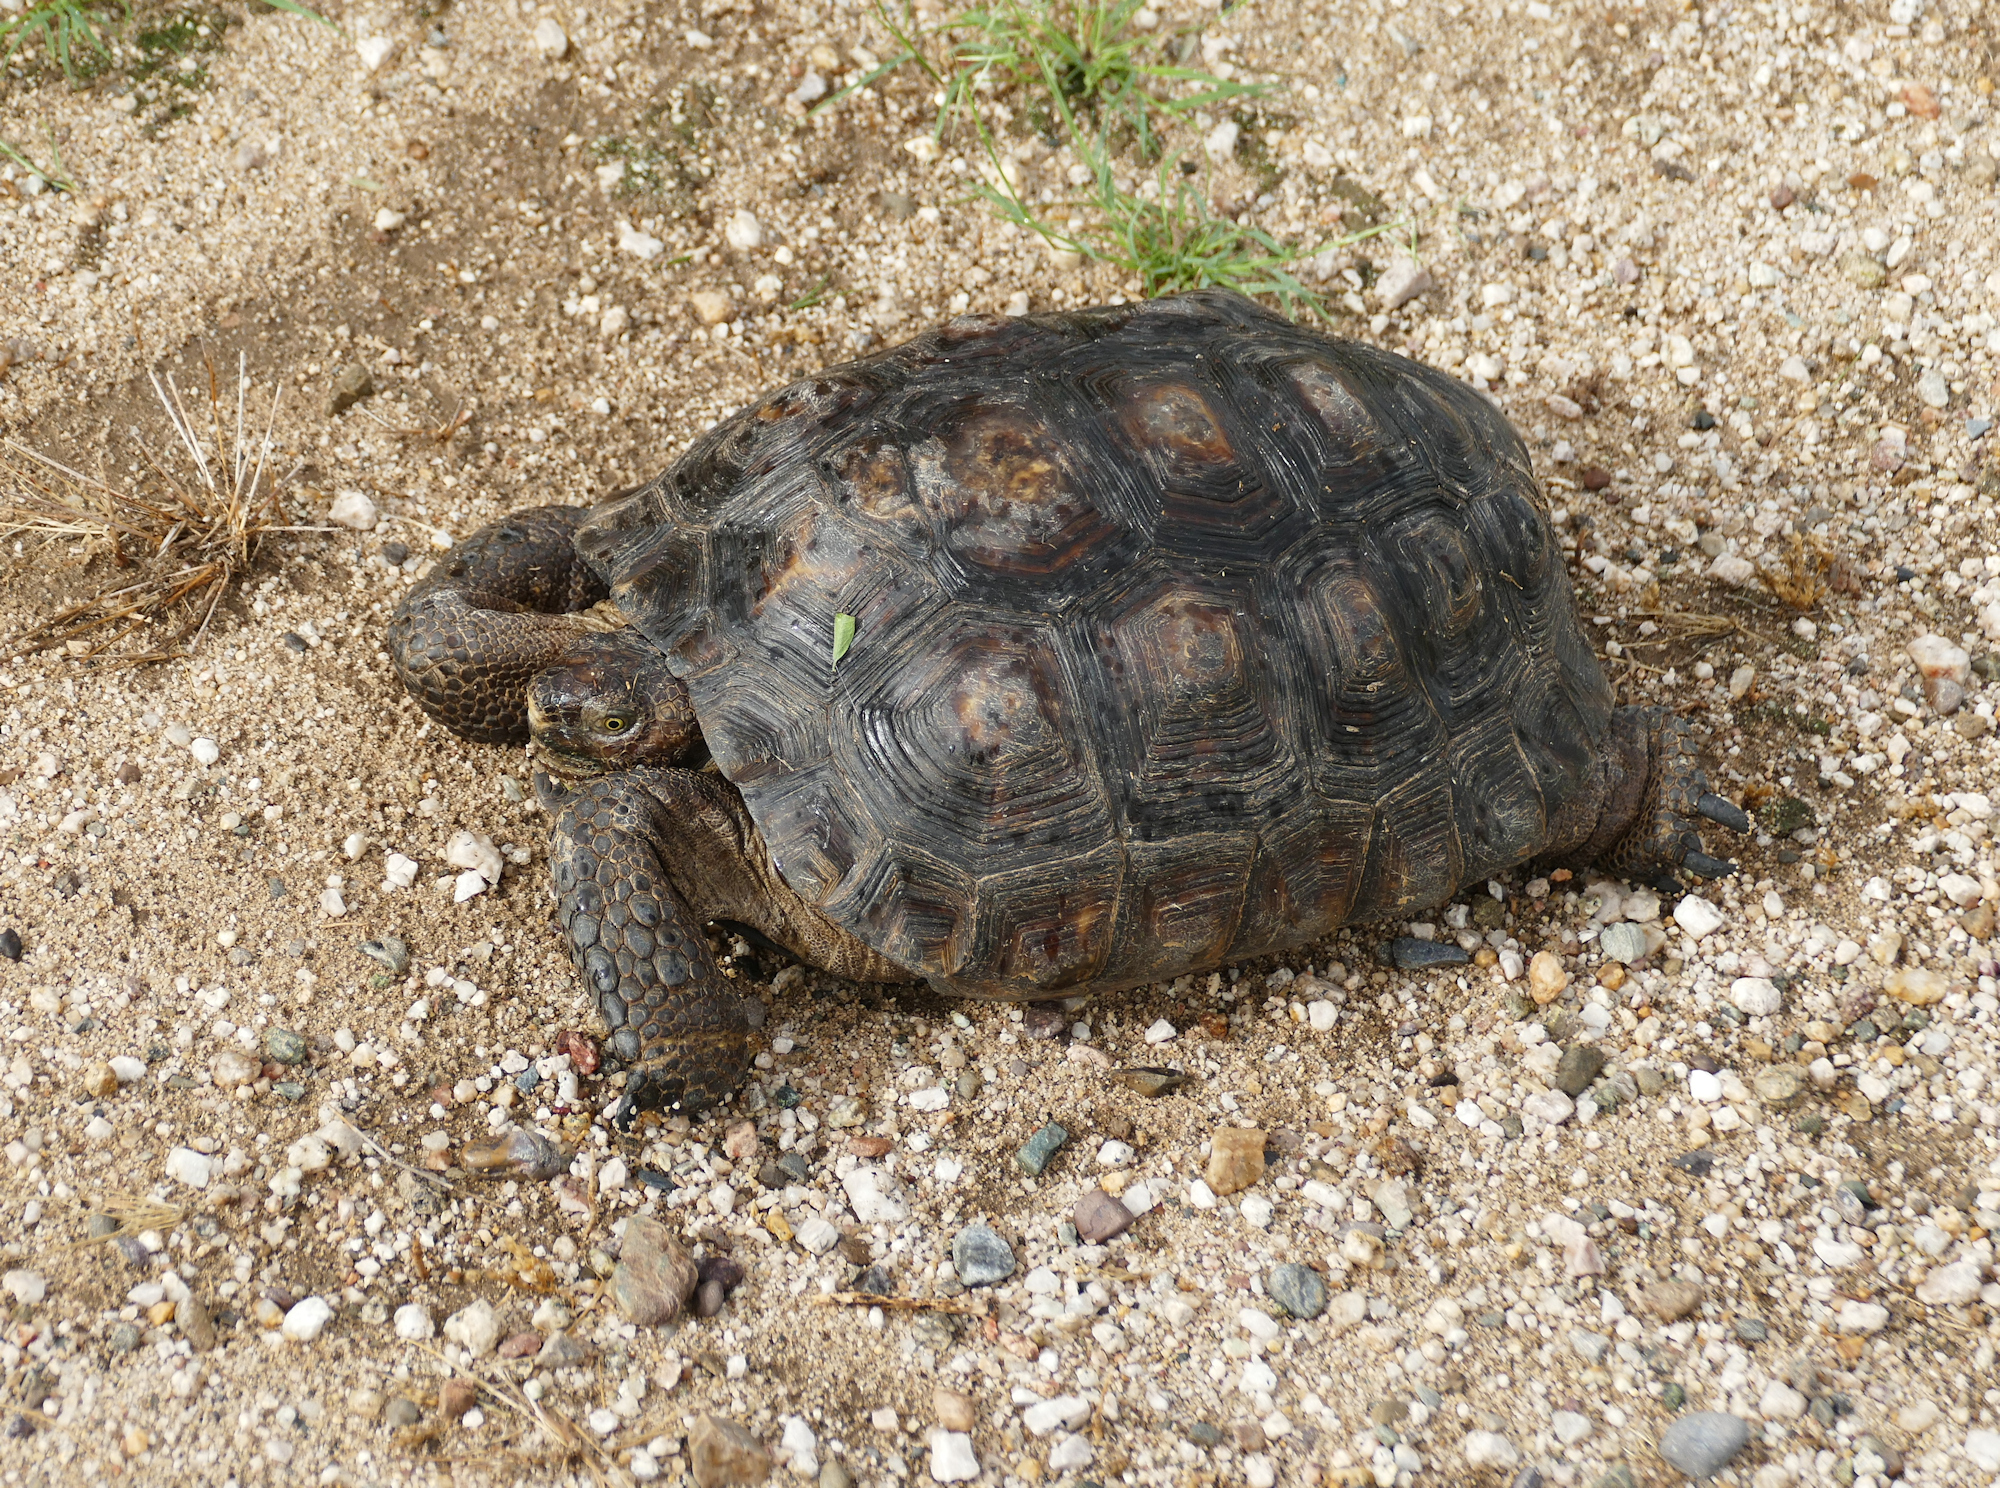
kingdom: Animalia
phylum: Chordata
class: Testudines
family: Testudinidae
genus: Gopherus
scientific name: Gopherus morafkai
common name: Sonoran desert tortoise
